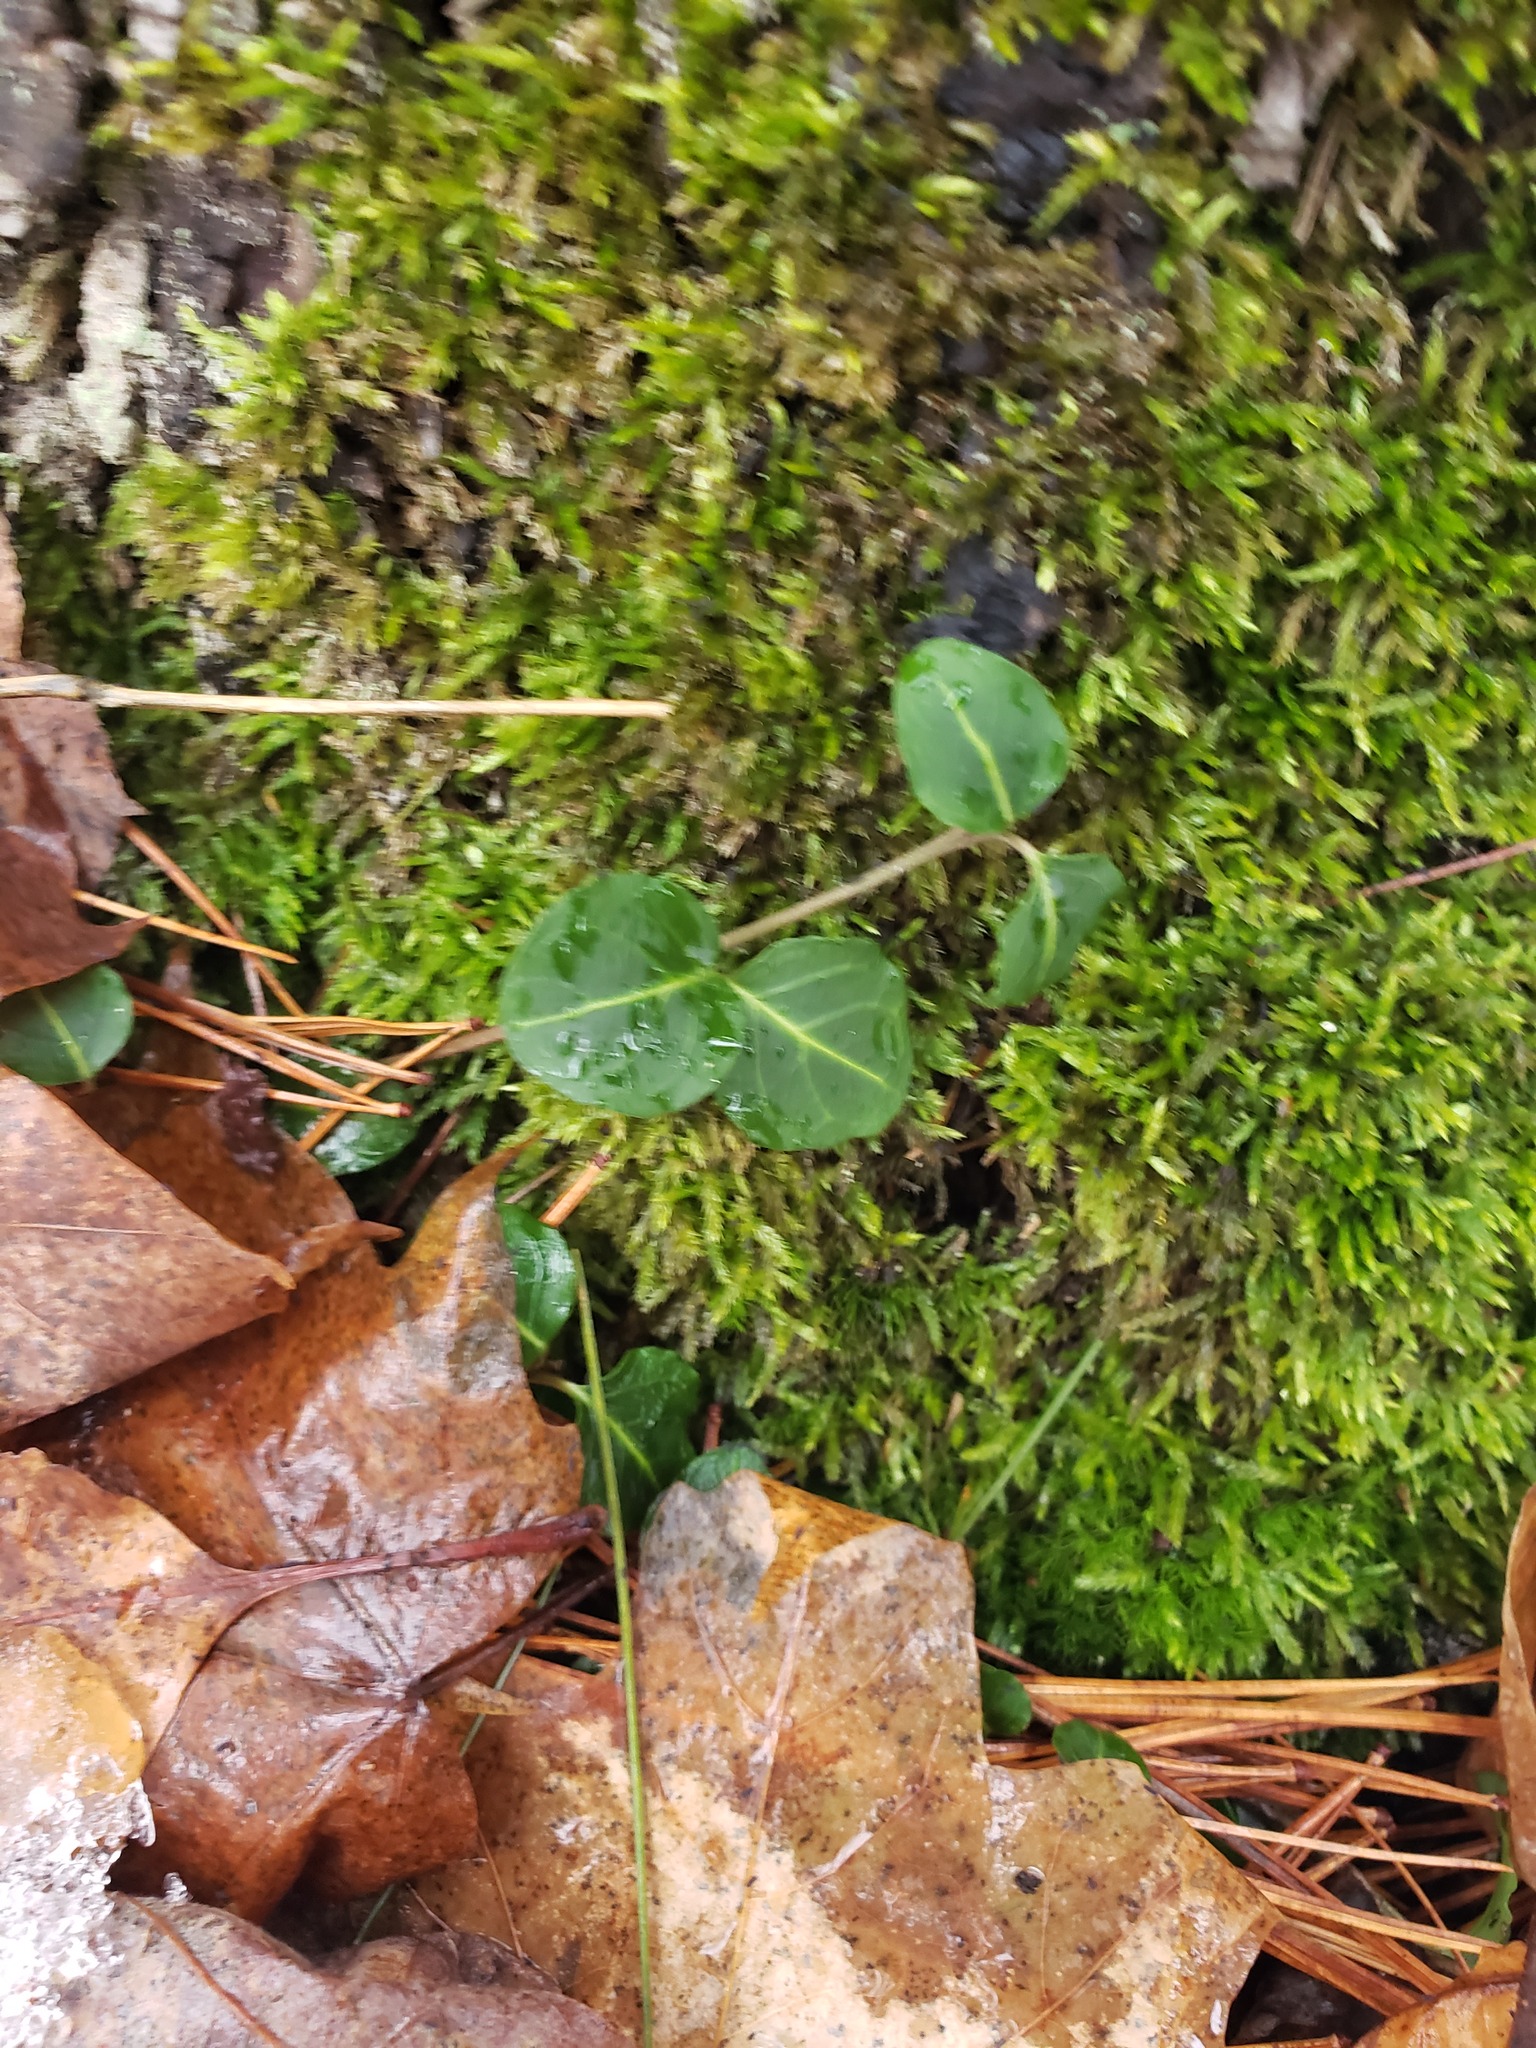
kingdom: Plantae
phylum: Tracheophyta
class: Magnoliopsida
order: Gentianales
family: Rubiaceae
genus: Mitchella
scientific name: Mitchella repens
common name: Partridge-berry
